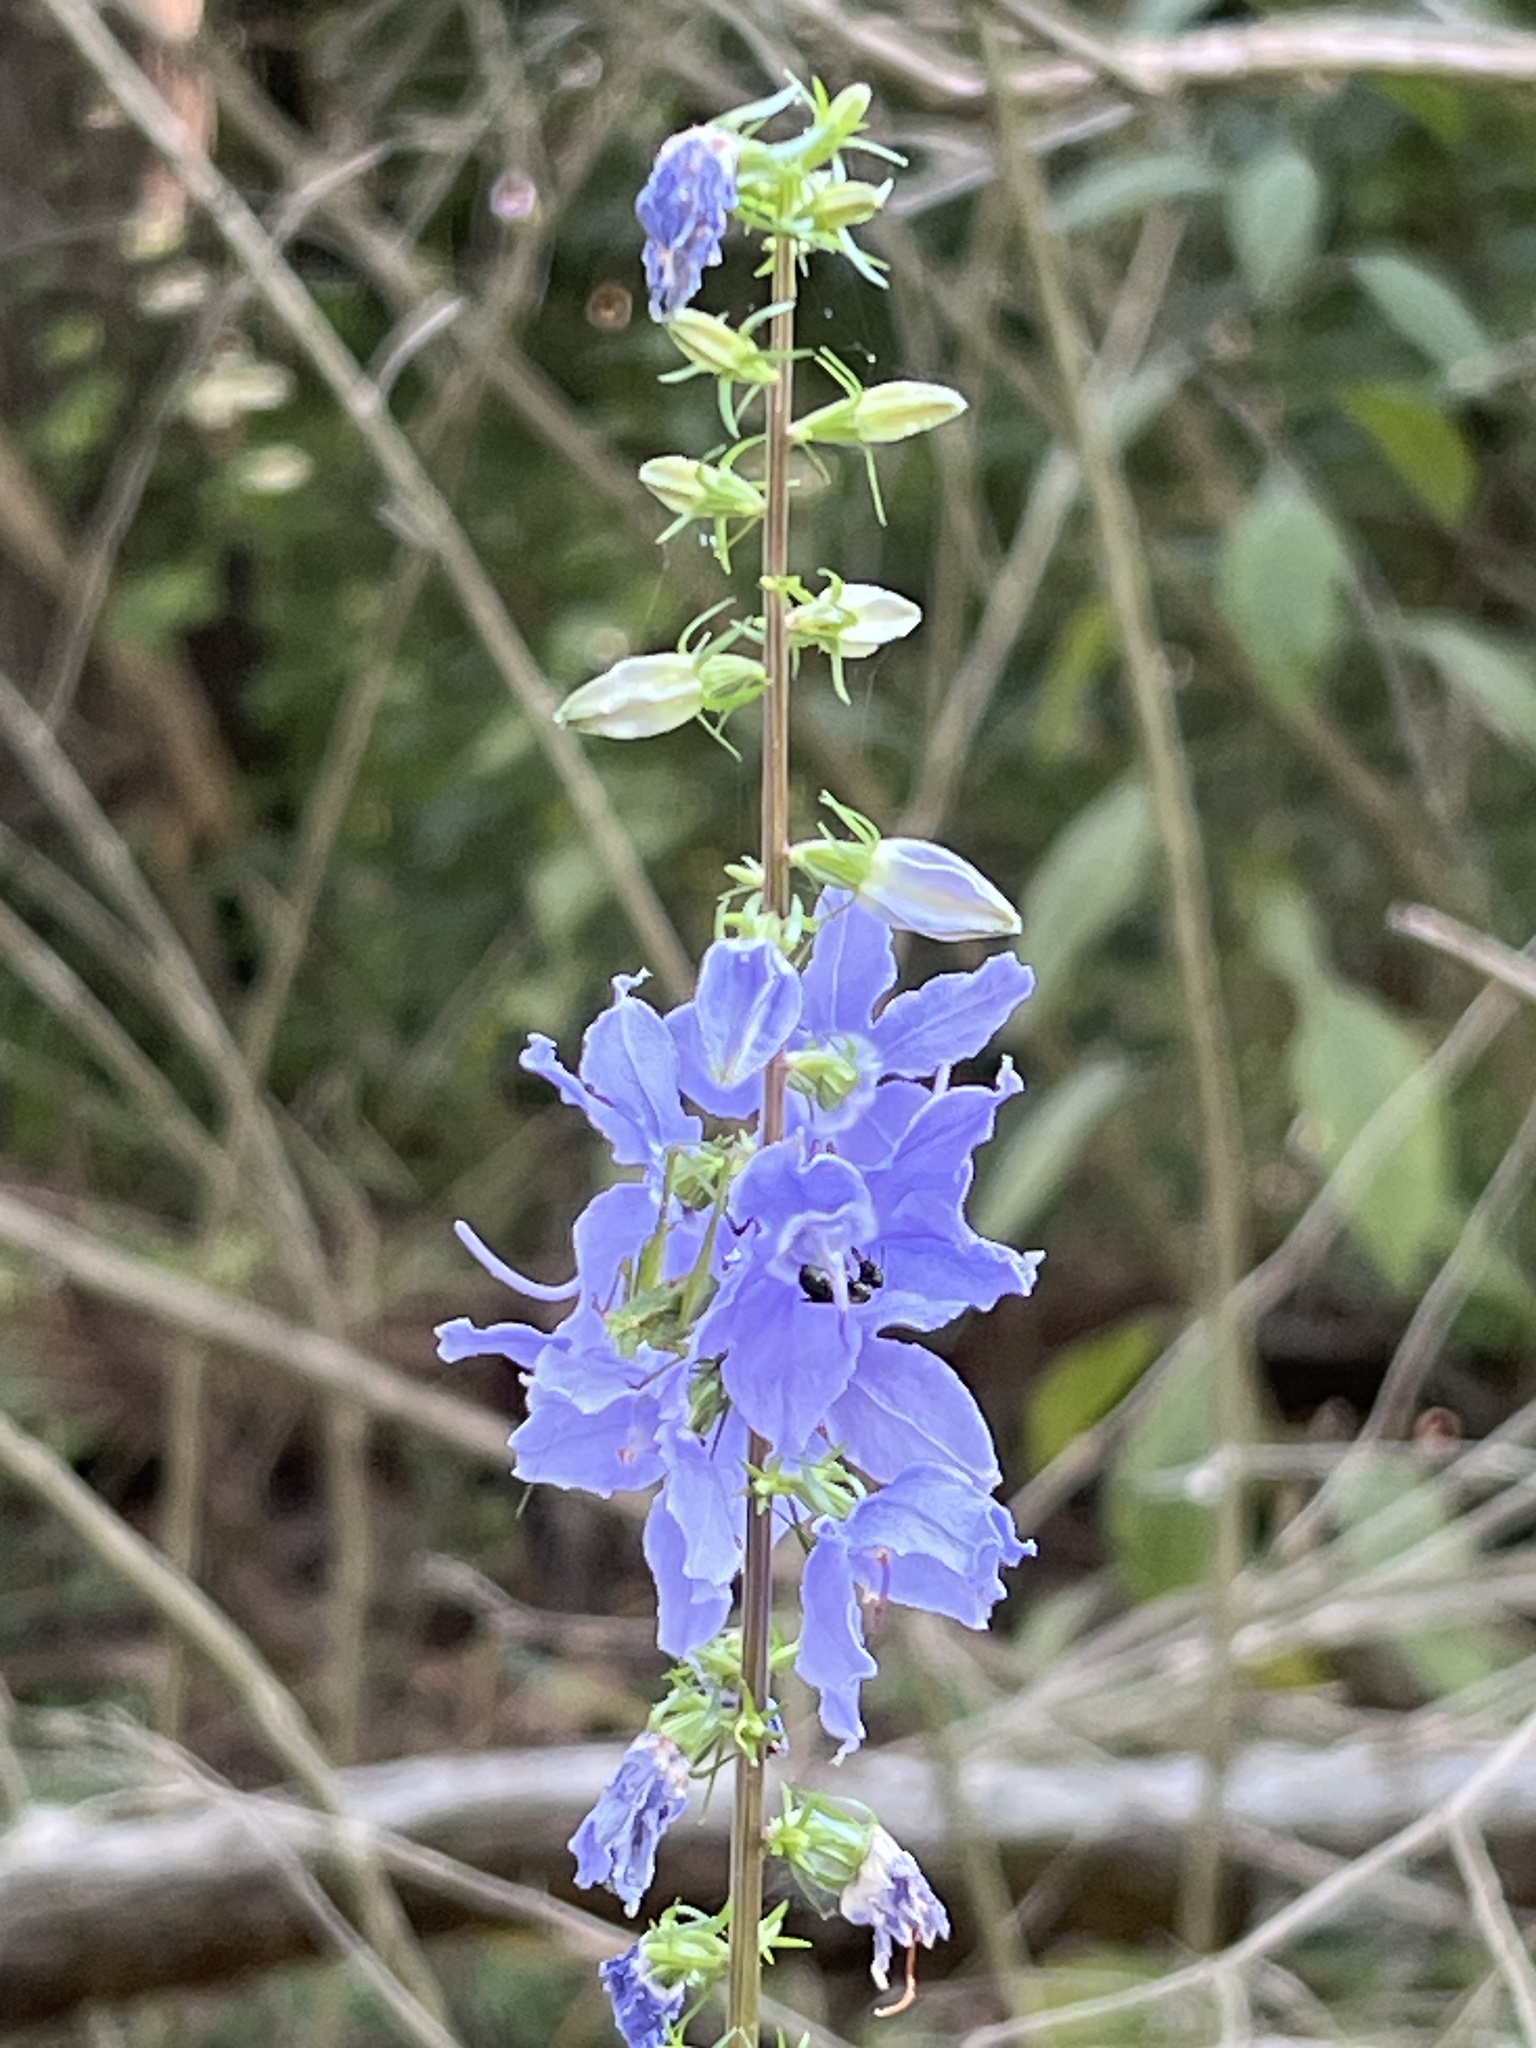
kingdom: Plantae
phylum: Tracheophyta
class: Magnoliopsida
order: Asterales
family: Campanulaceae
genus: Campanulastrum
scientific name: Campanulastrum americanum
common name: American bellflower
